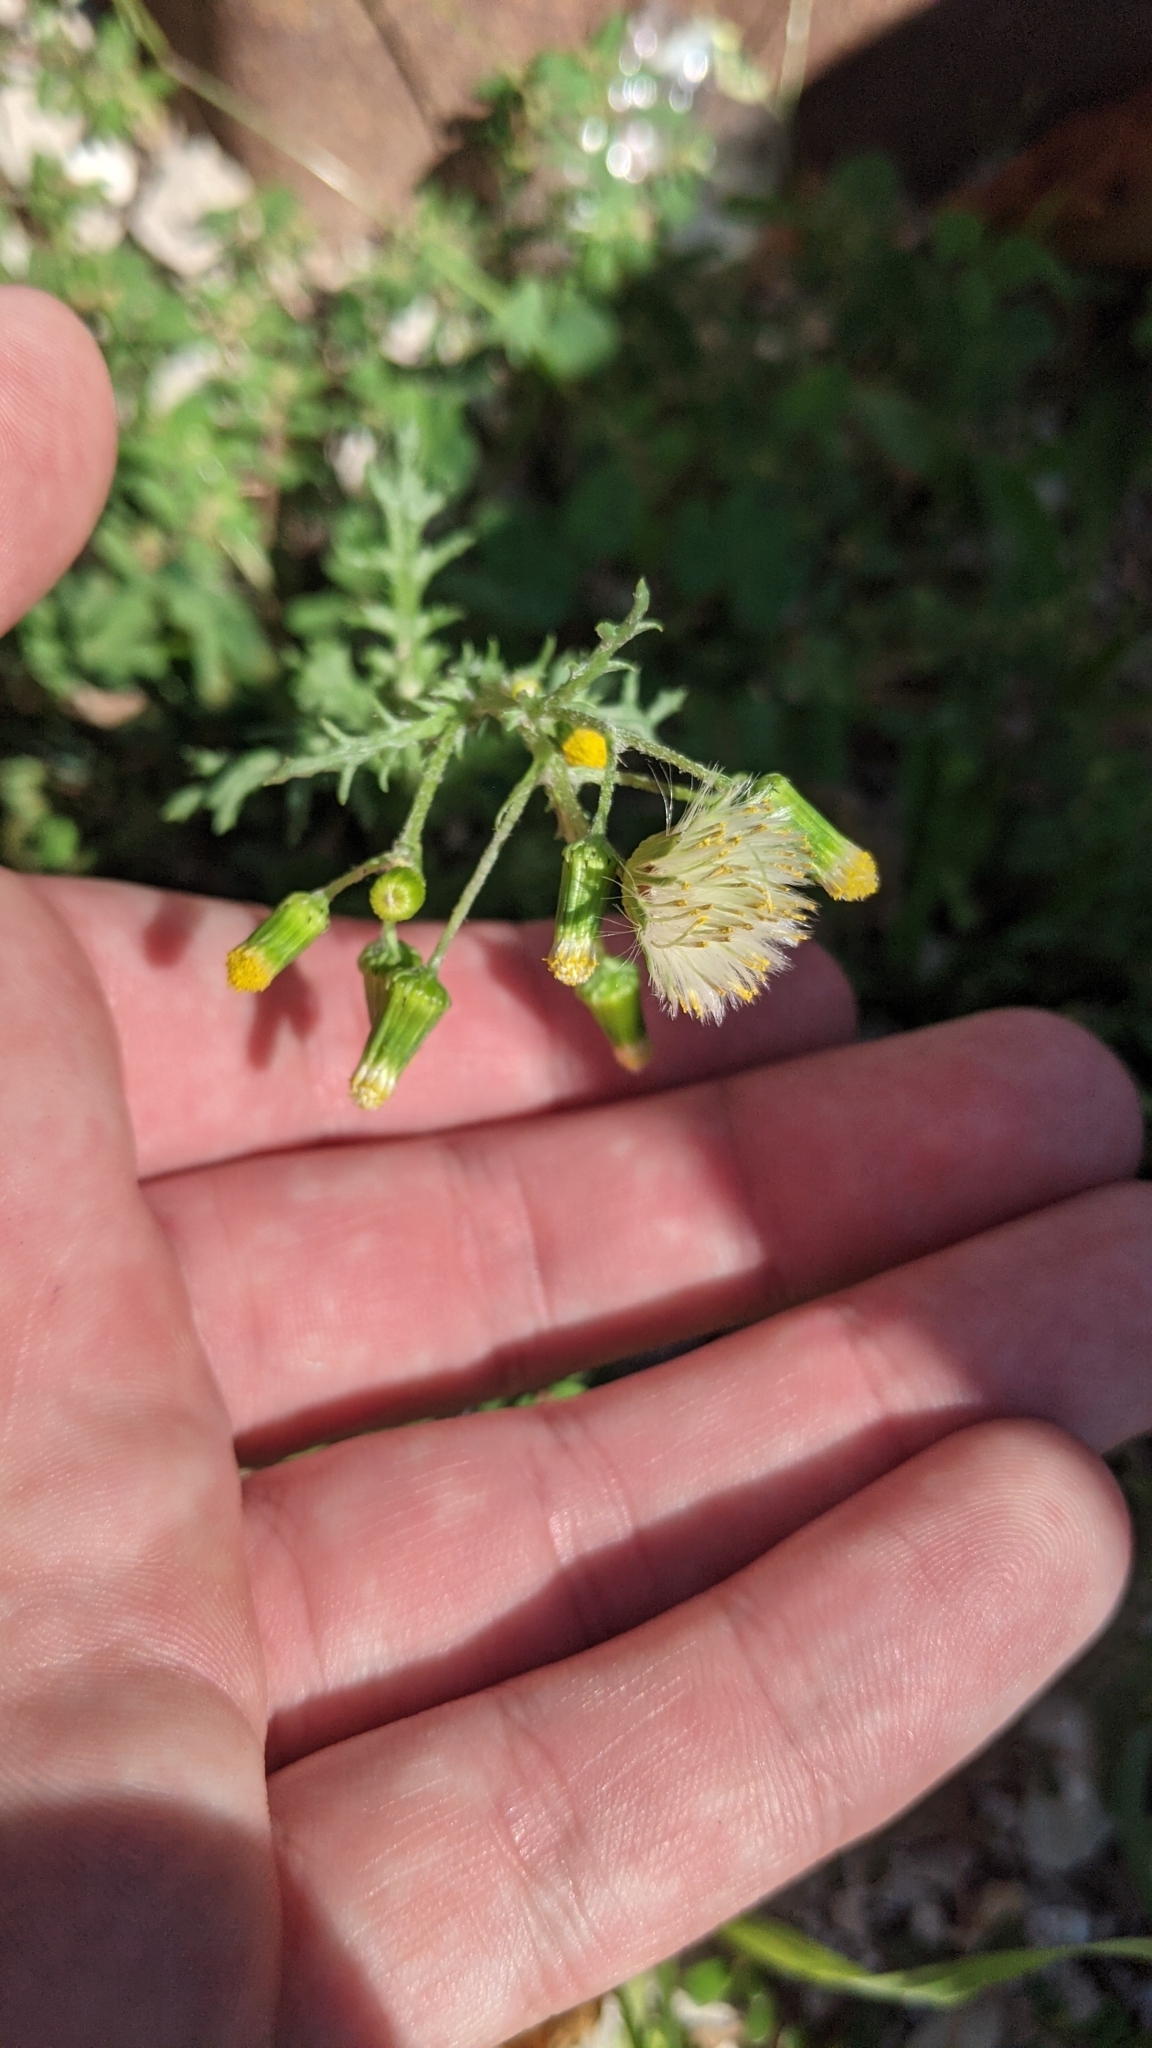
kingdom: Plantae
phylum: Tracheophyta
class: Magnoliopsida
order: Asterales
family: Asteraceae
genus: Senecio
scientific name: Senecio vulgaris
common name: Old-man-in-the-spring
